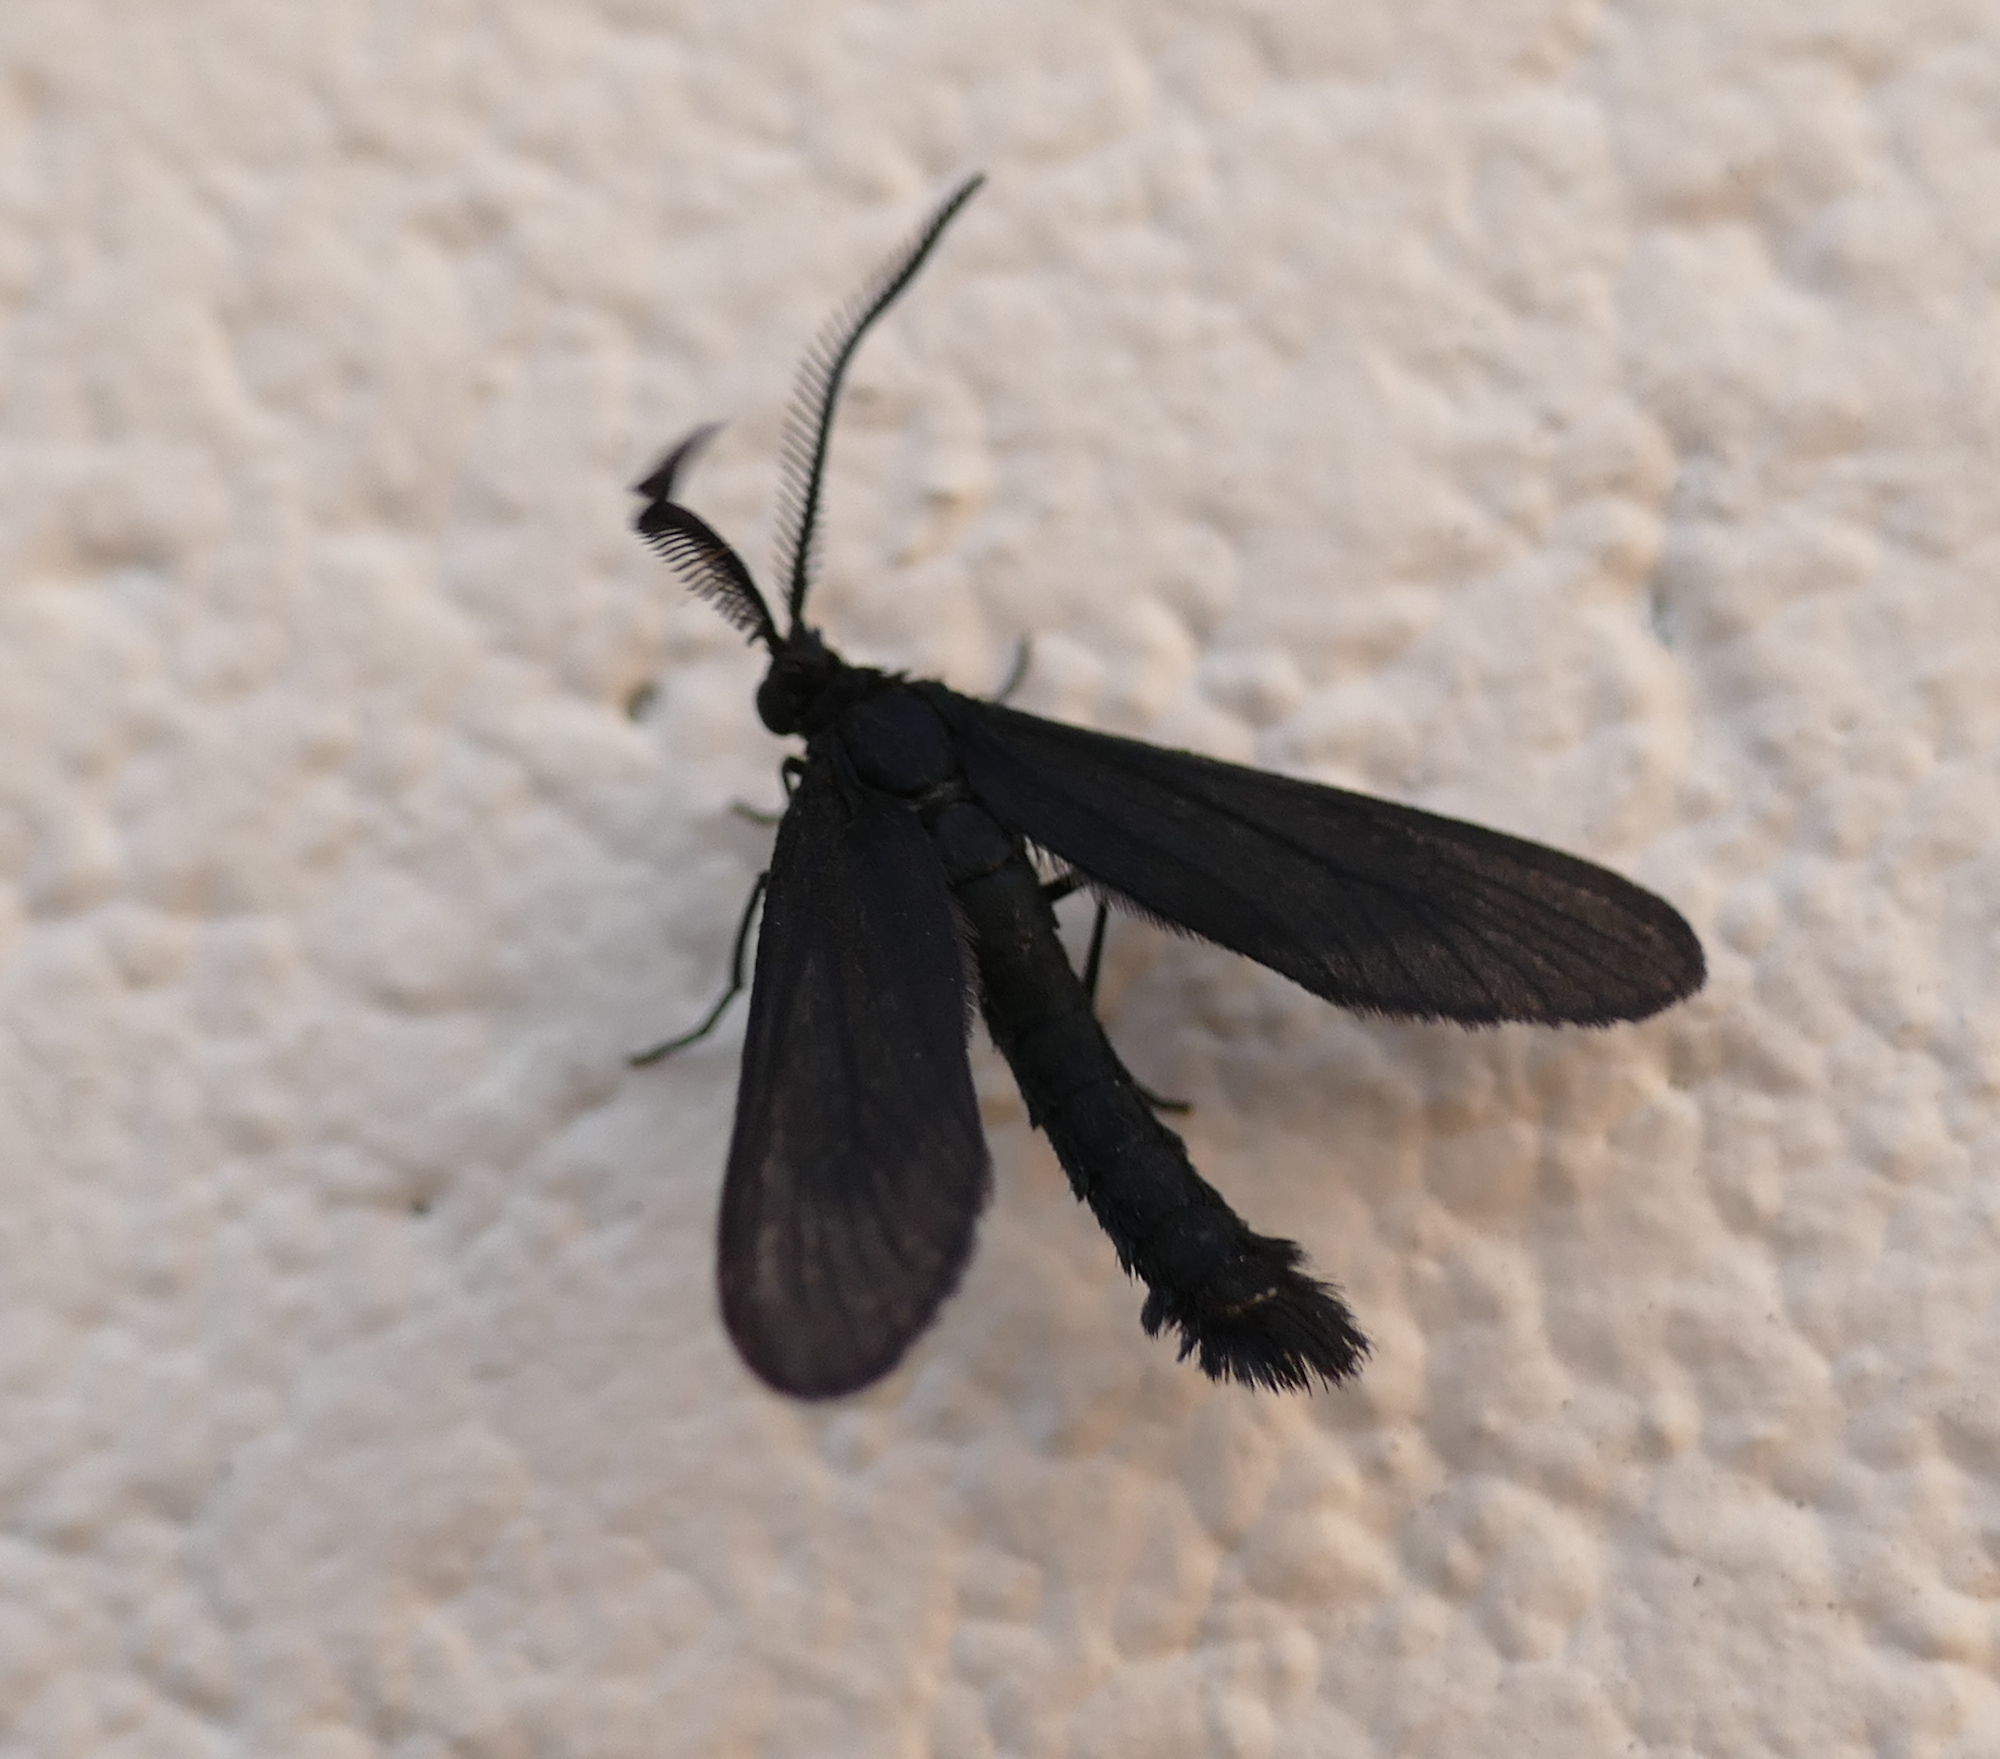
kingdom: Animalia
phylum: Arthropoda
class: Insecta
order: Lepidoptera
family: Zygaenidae
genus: Harrisina
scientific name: Harrisina coracina
